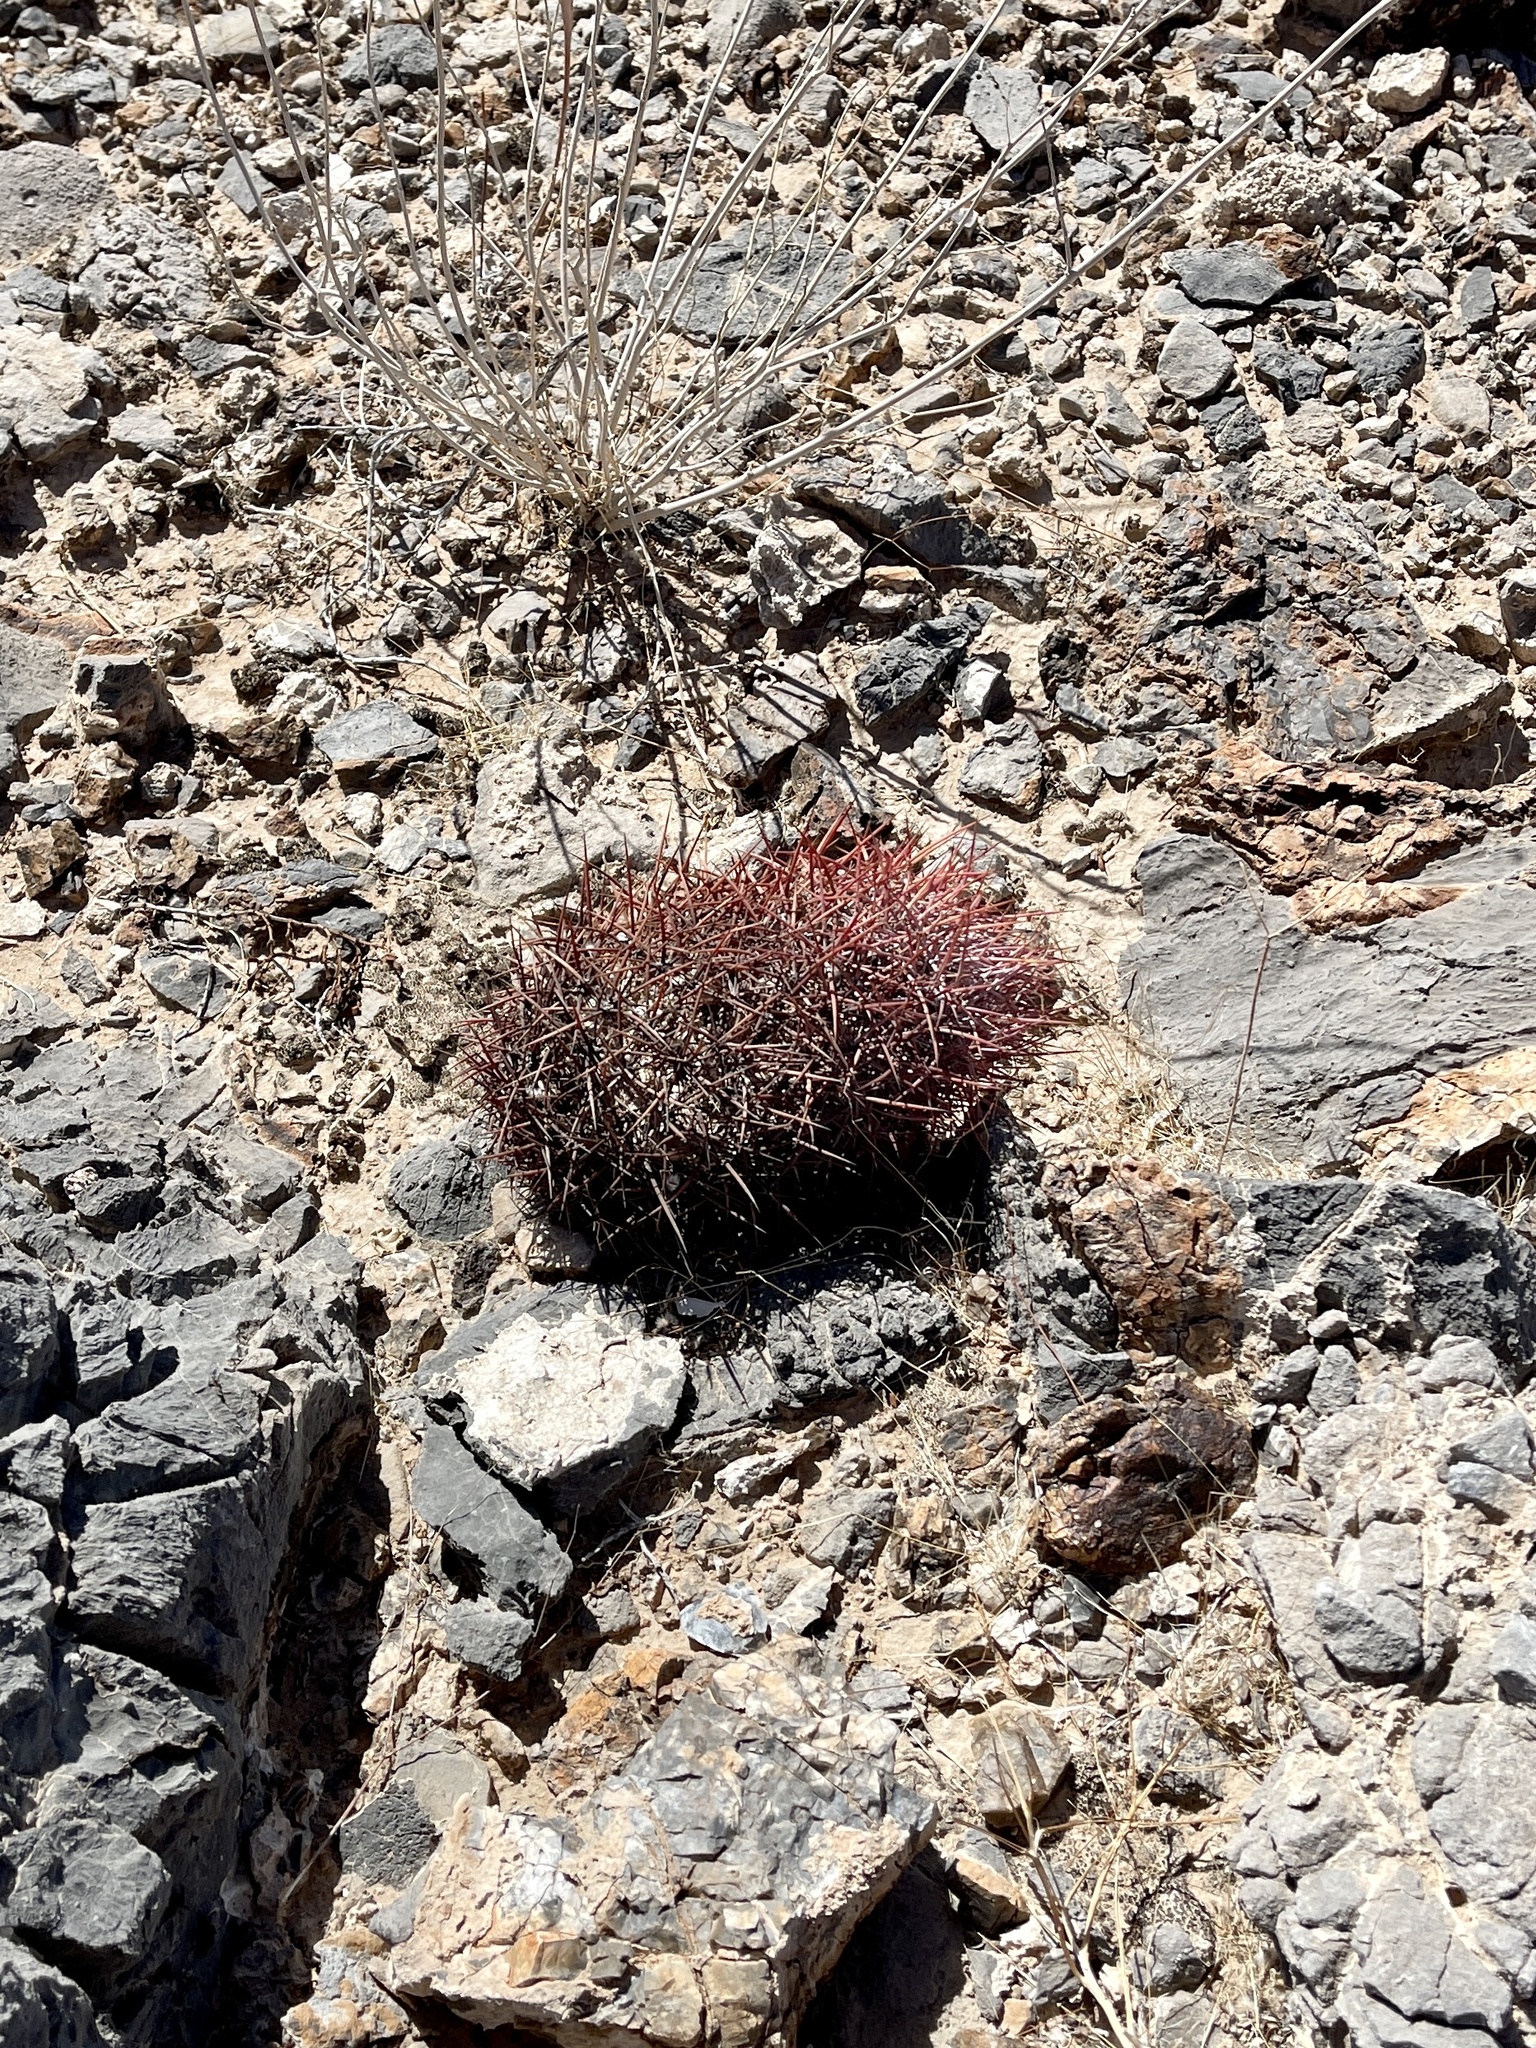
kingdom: Plantae
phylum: Tracheophyta
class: Magnoliopsida
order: Caryophyllales
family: Cactaceae
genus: Sclerocactus
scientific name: Sclerocactus johnsonii
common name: Eight-spine fishhook cactus
